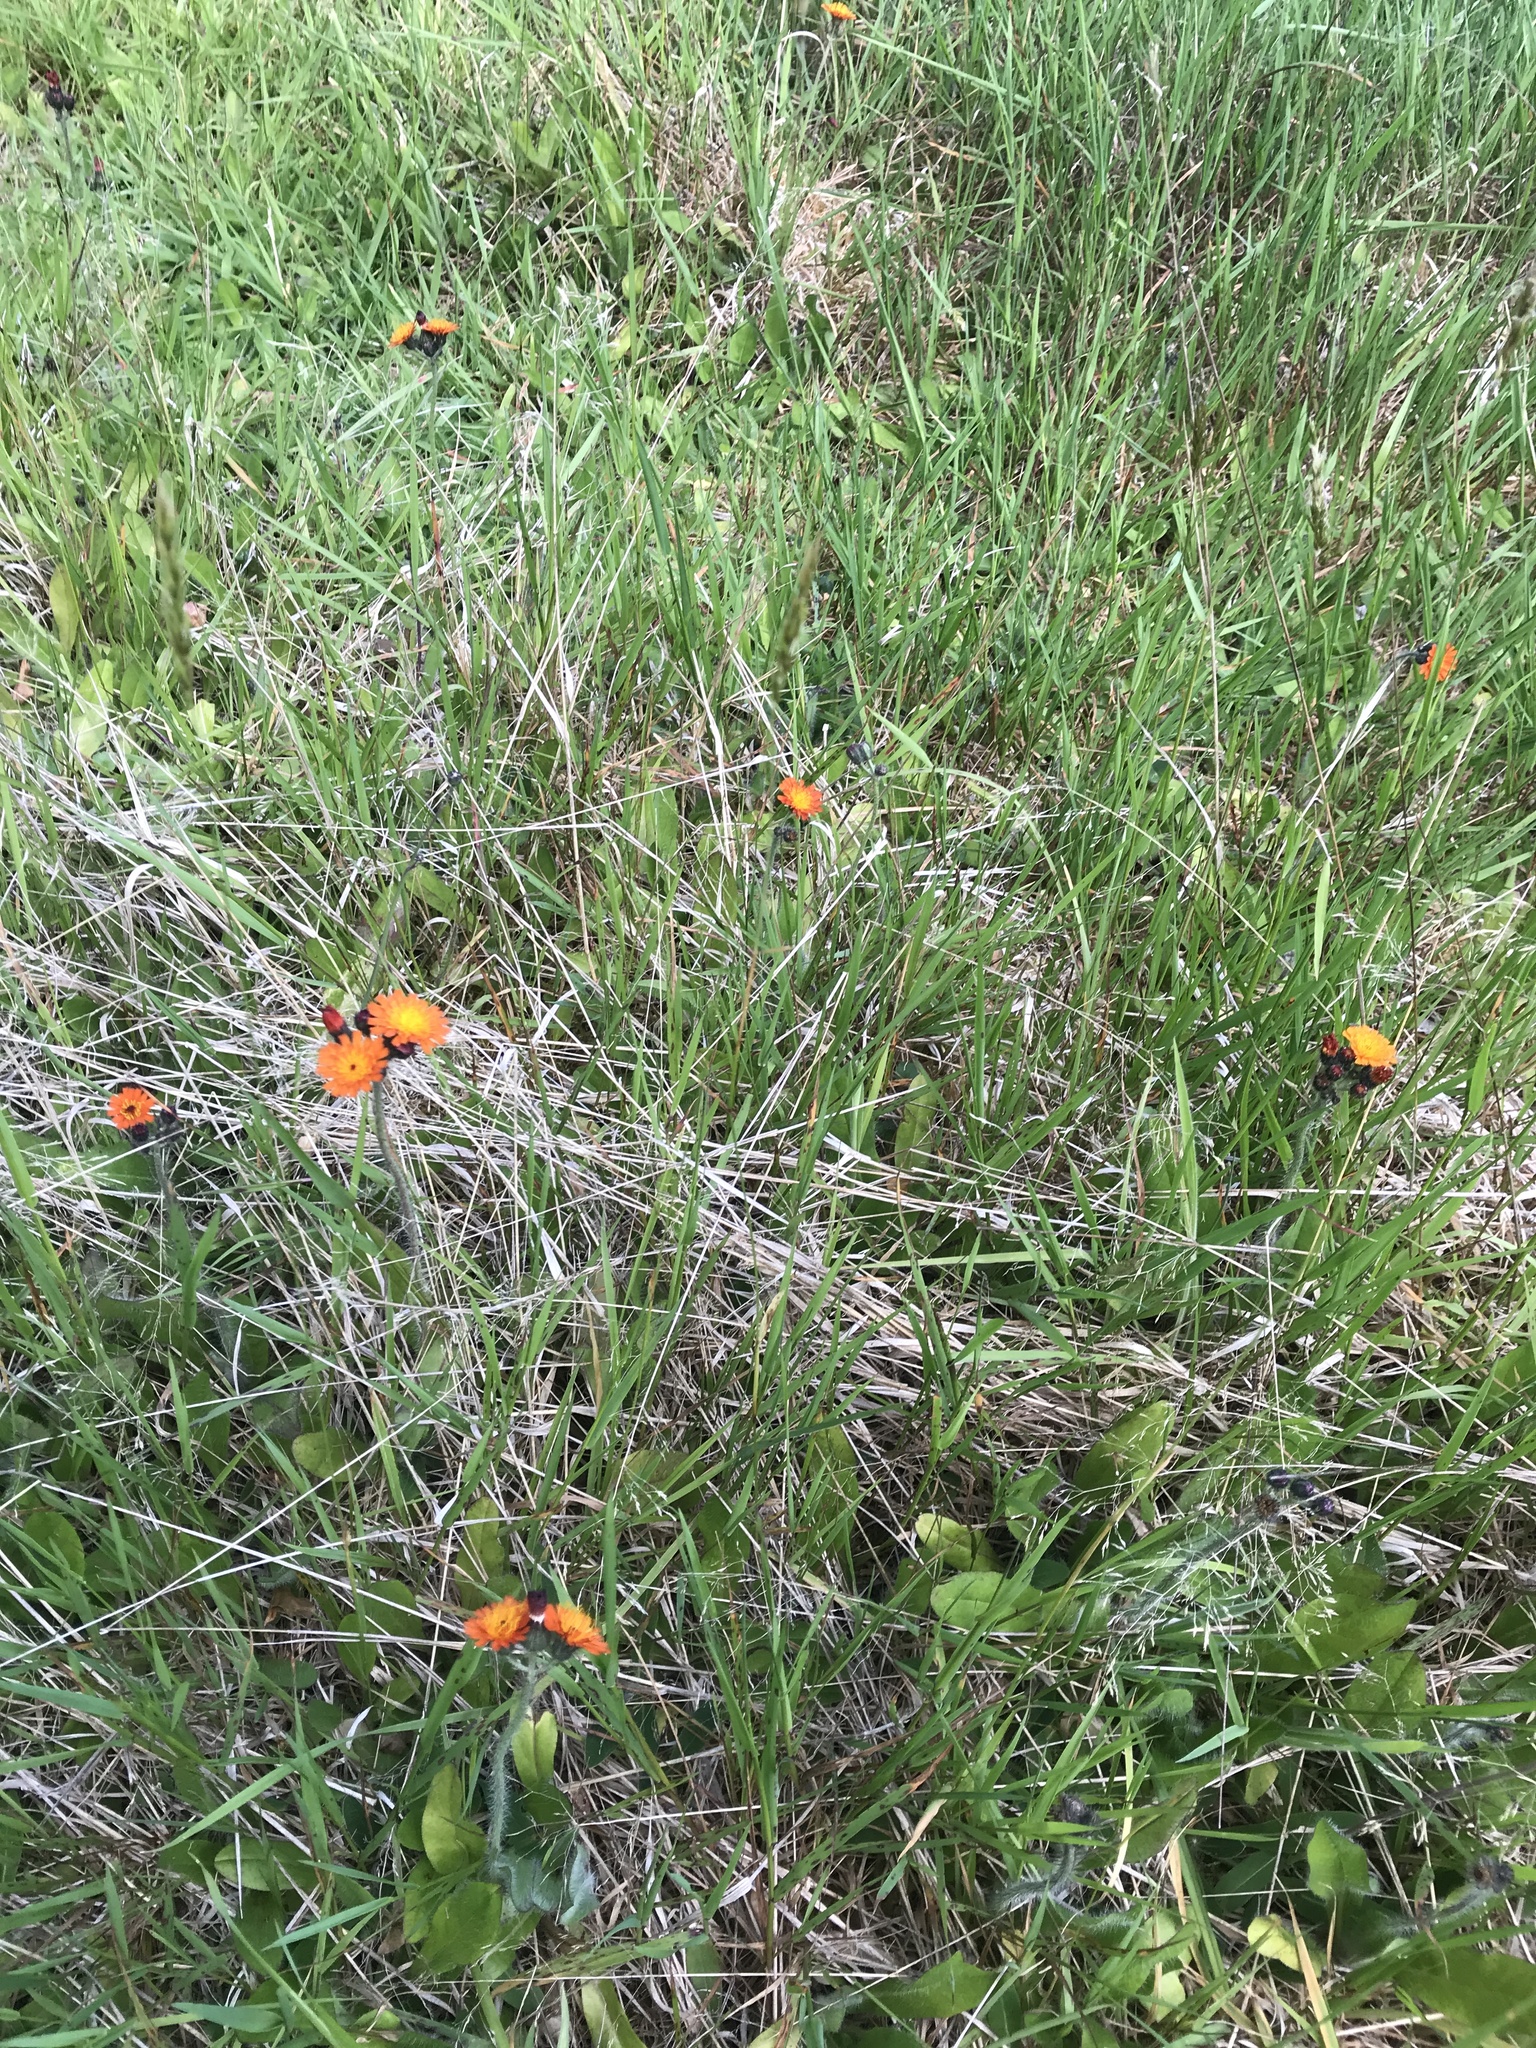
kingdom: Plantae
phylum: Tracheophyta
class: Magnoliopsida
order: Asterales
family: Asteraceae
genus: Pilosella
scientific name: Pilosella aurantiaca
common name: Fox-and-cubs
